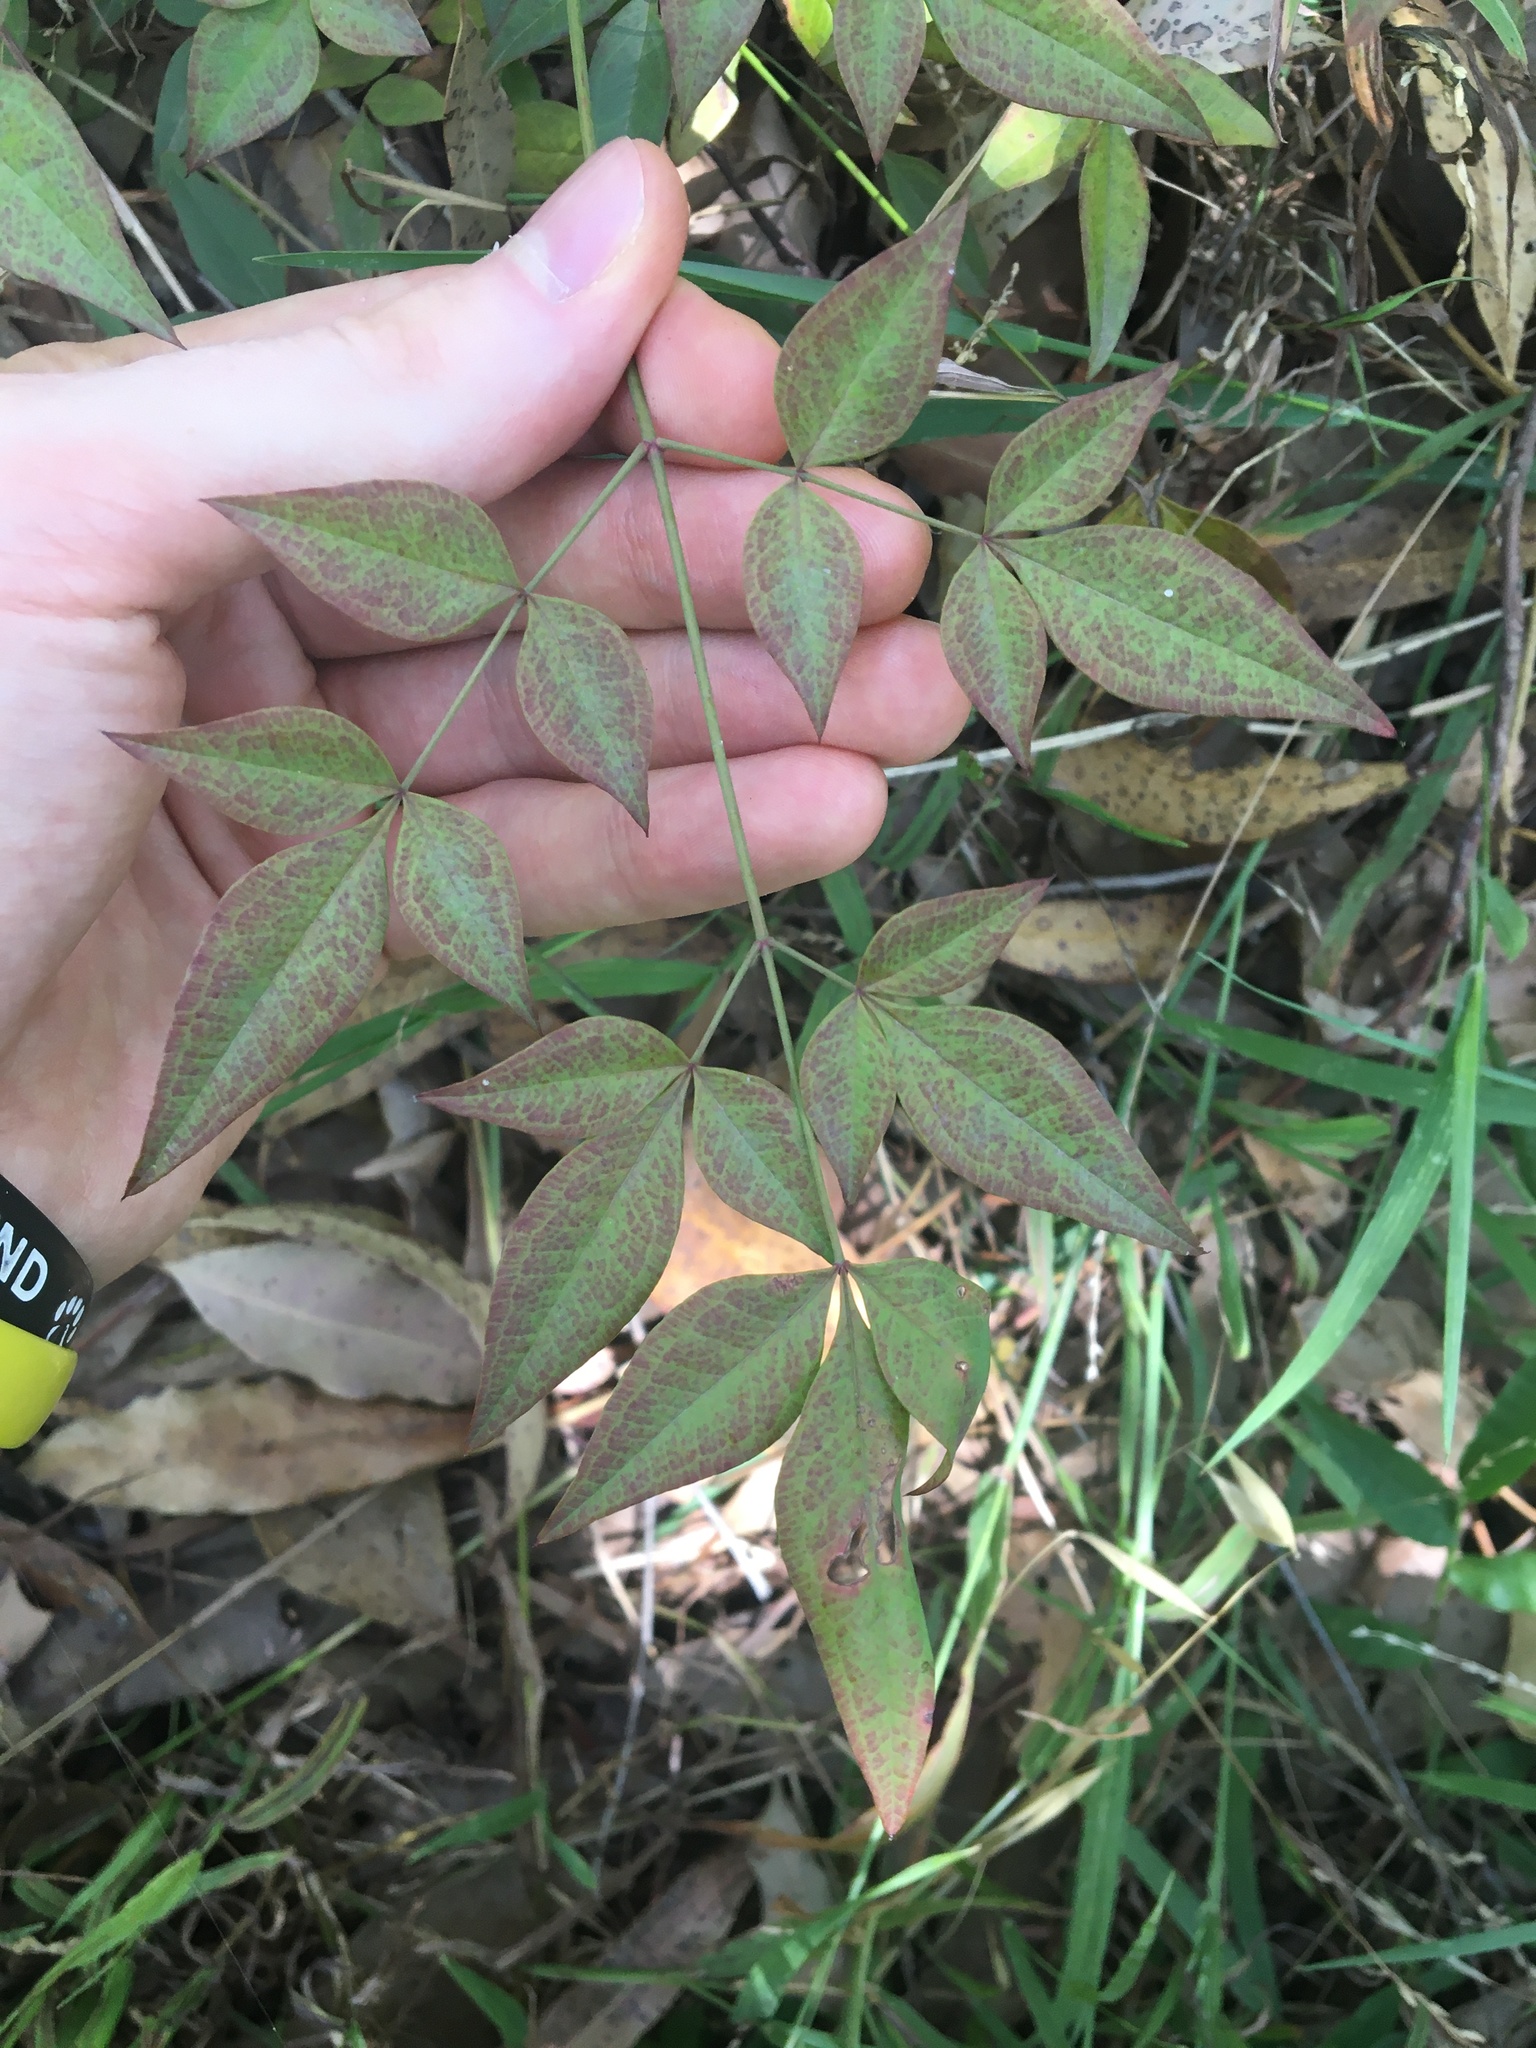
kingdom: Plantae
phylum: Tracheophyta
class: Magnoliopsida
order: Ranunculales
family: Berberidaceae
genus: Nandina
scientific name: Nandina domestica
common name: Sacred bamboo
